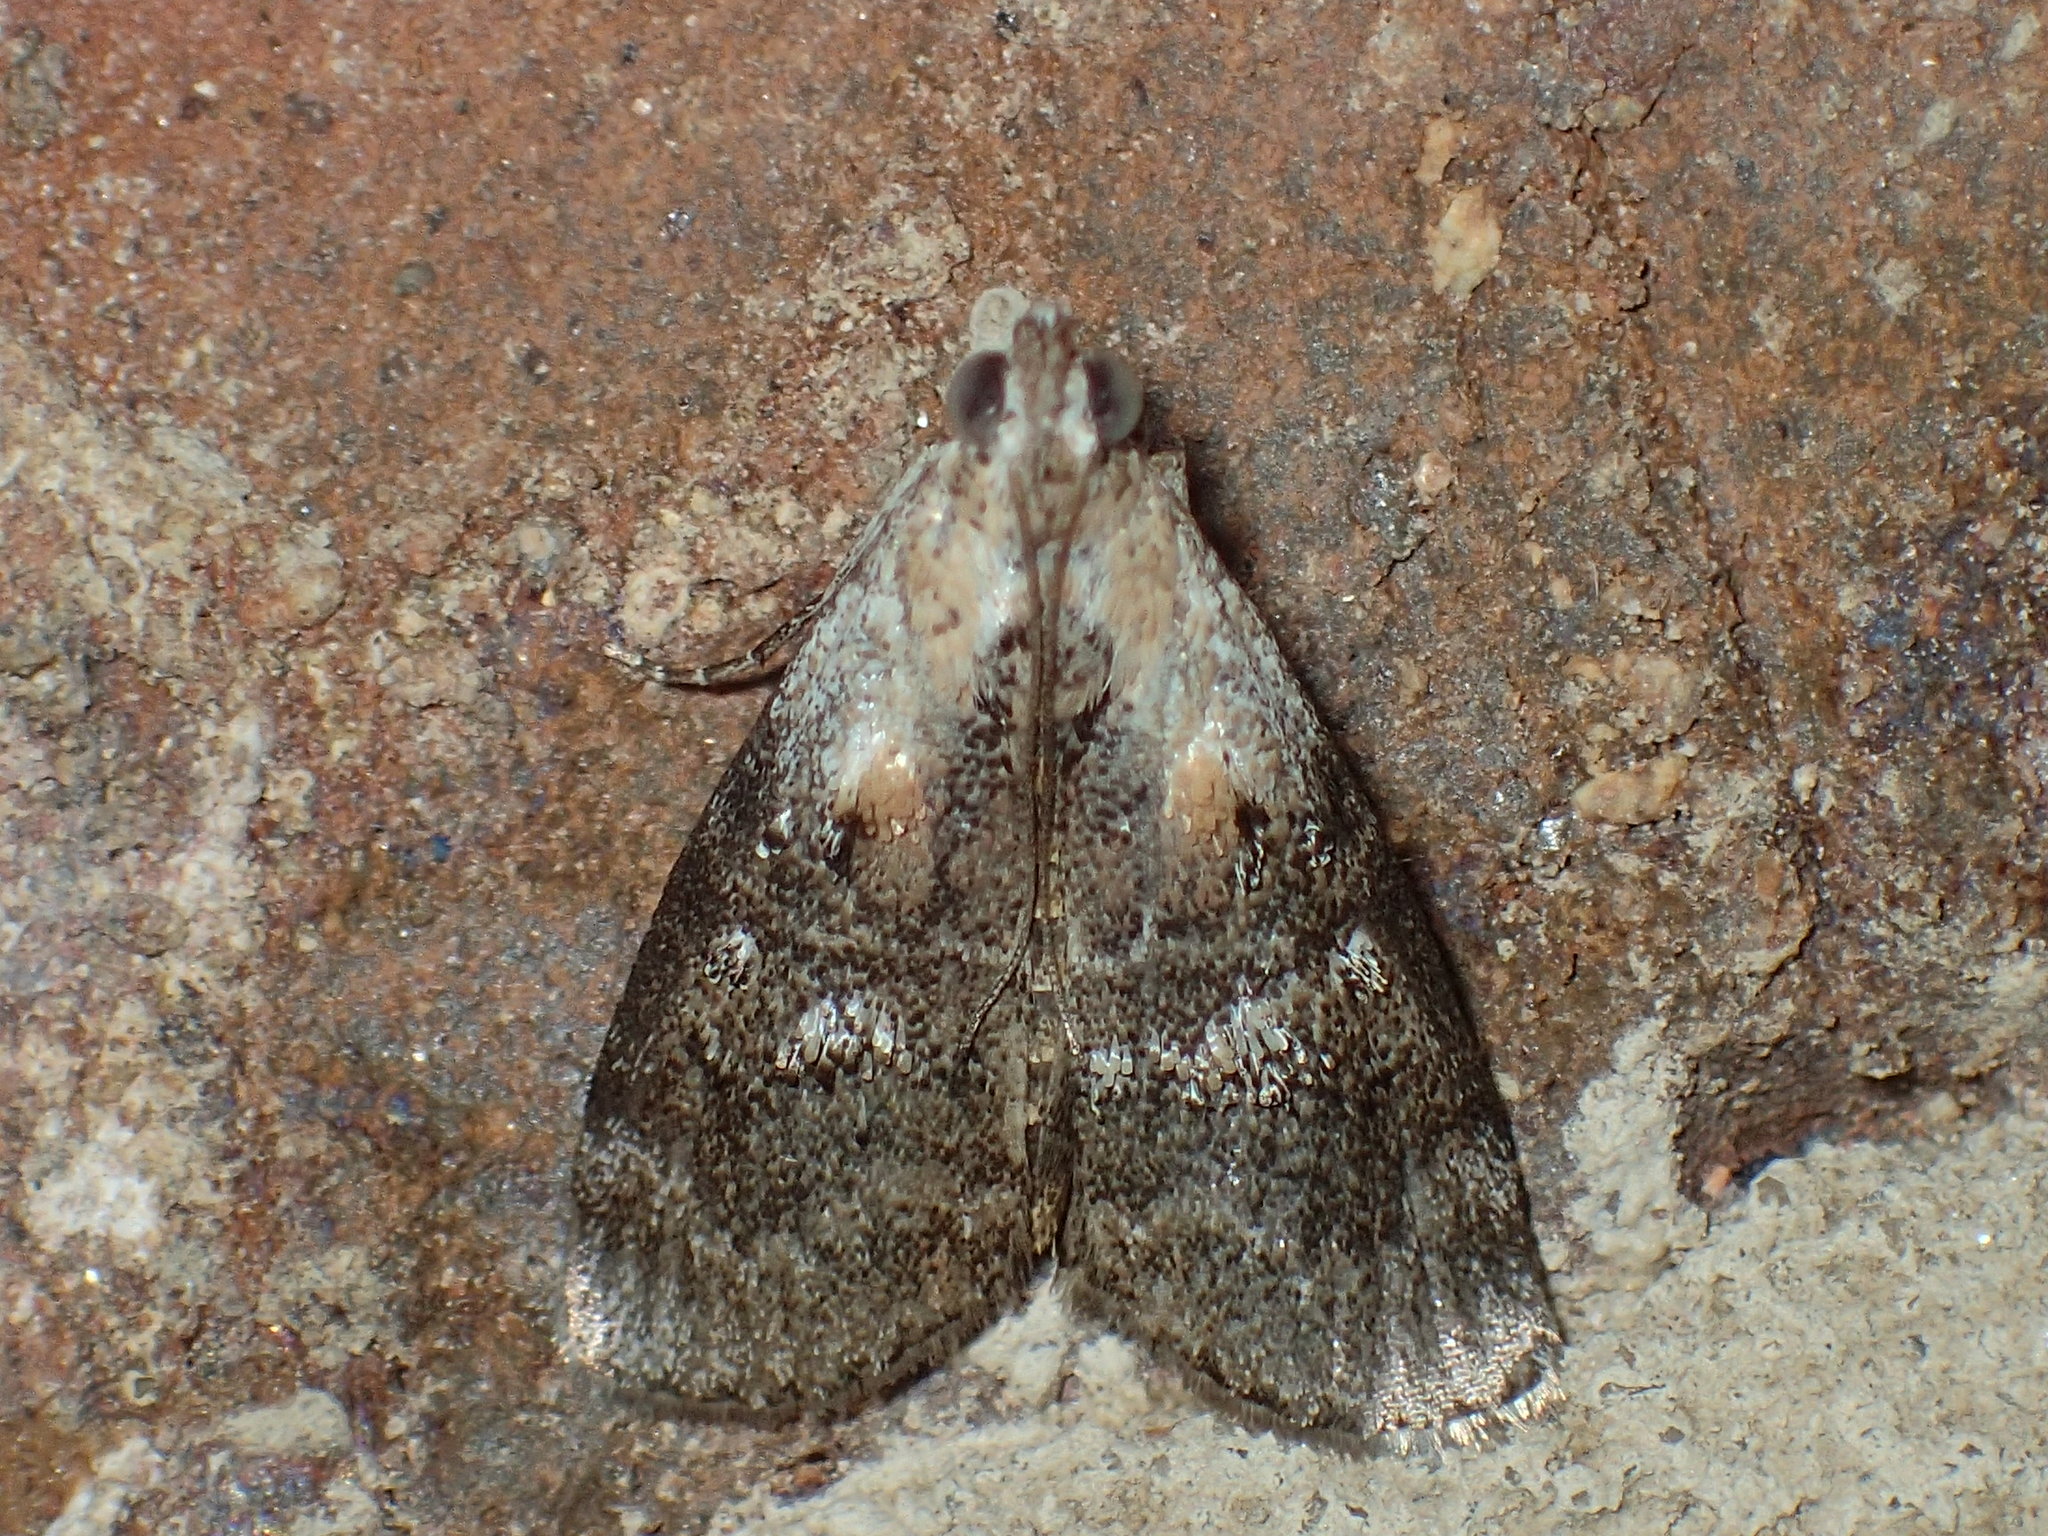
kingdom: Animalia
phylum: Arthropoda
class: Insecta
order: Lepidoptera
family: Pyralidae
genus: Pococera
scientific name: Pococera expandens
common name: Striped oak webworm moth
